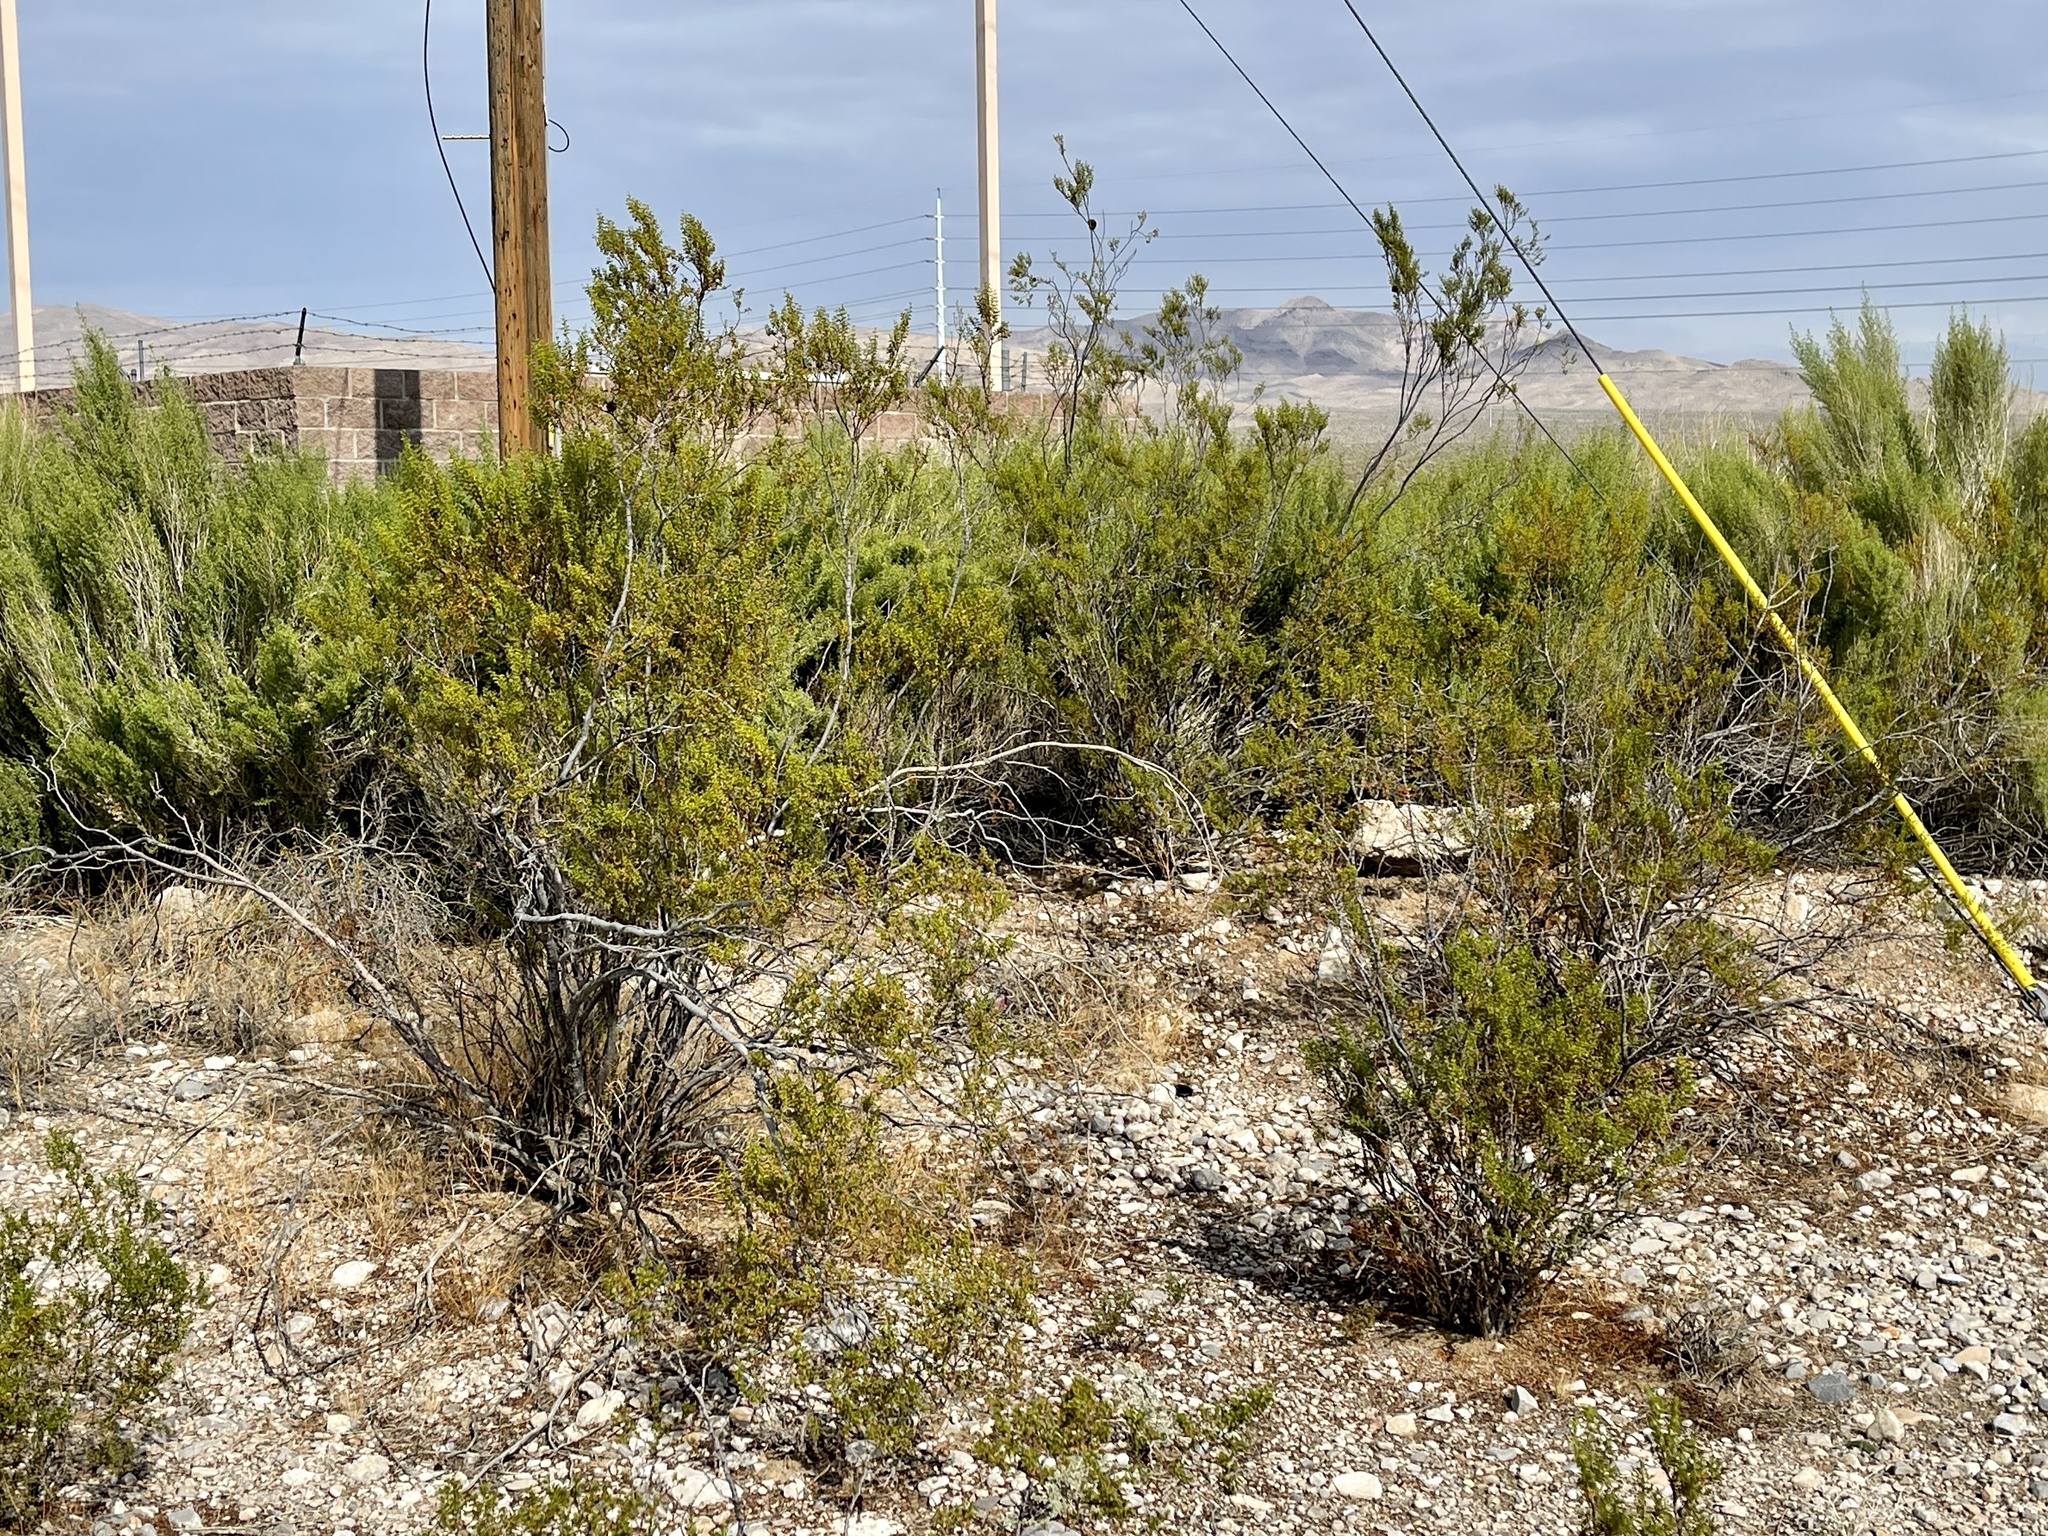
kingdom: Plantae
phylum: Tracheophyta
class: Magnoliopsida
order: Zygophyllales
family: Zygophyllaceae
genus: Larrea
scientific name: Larrea tridentata
